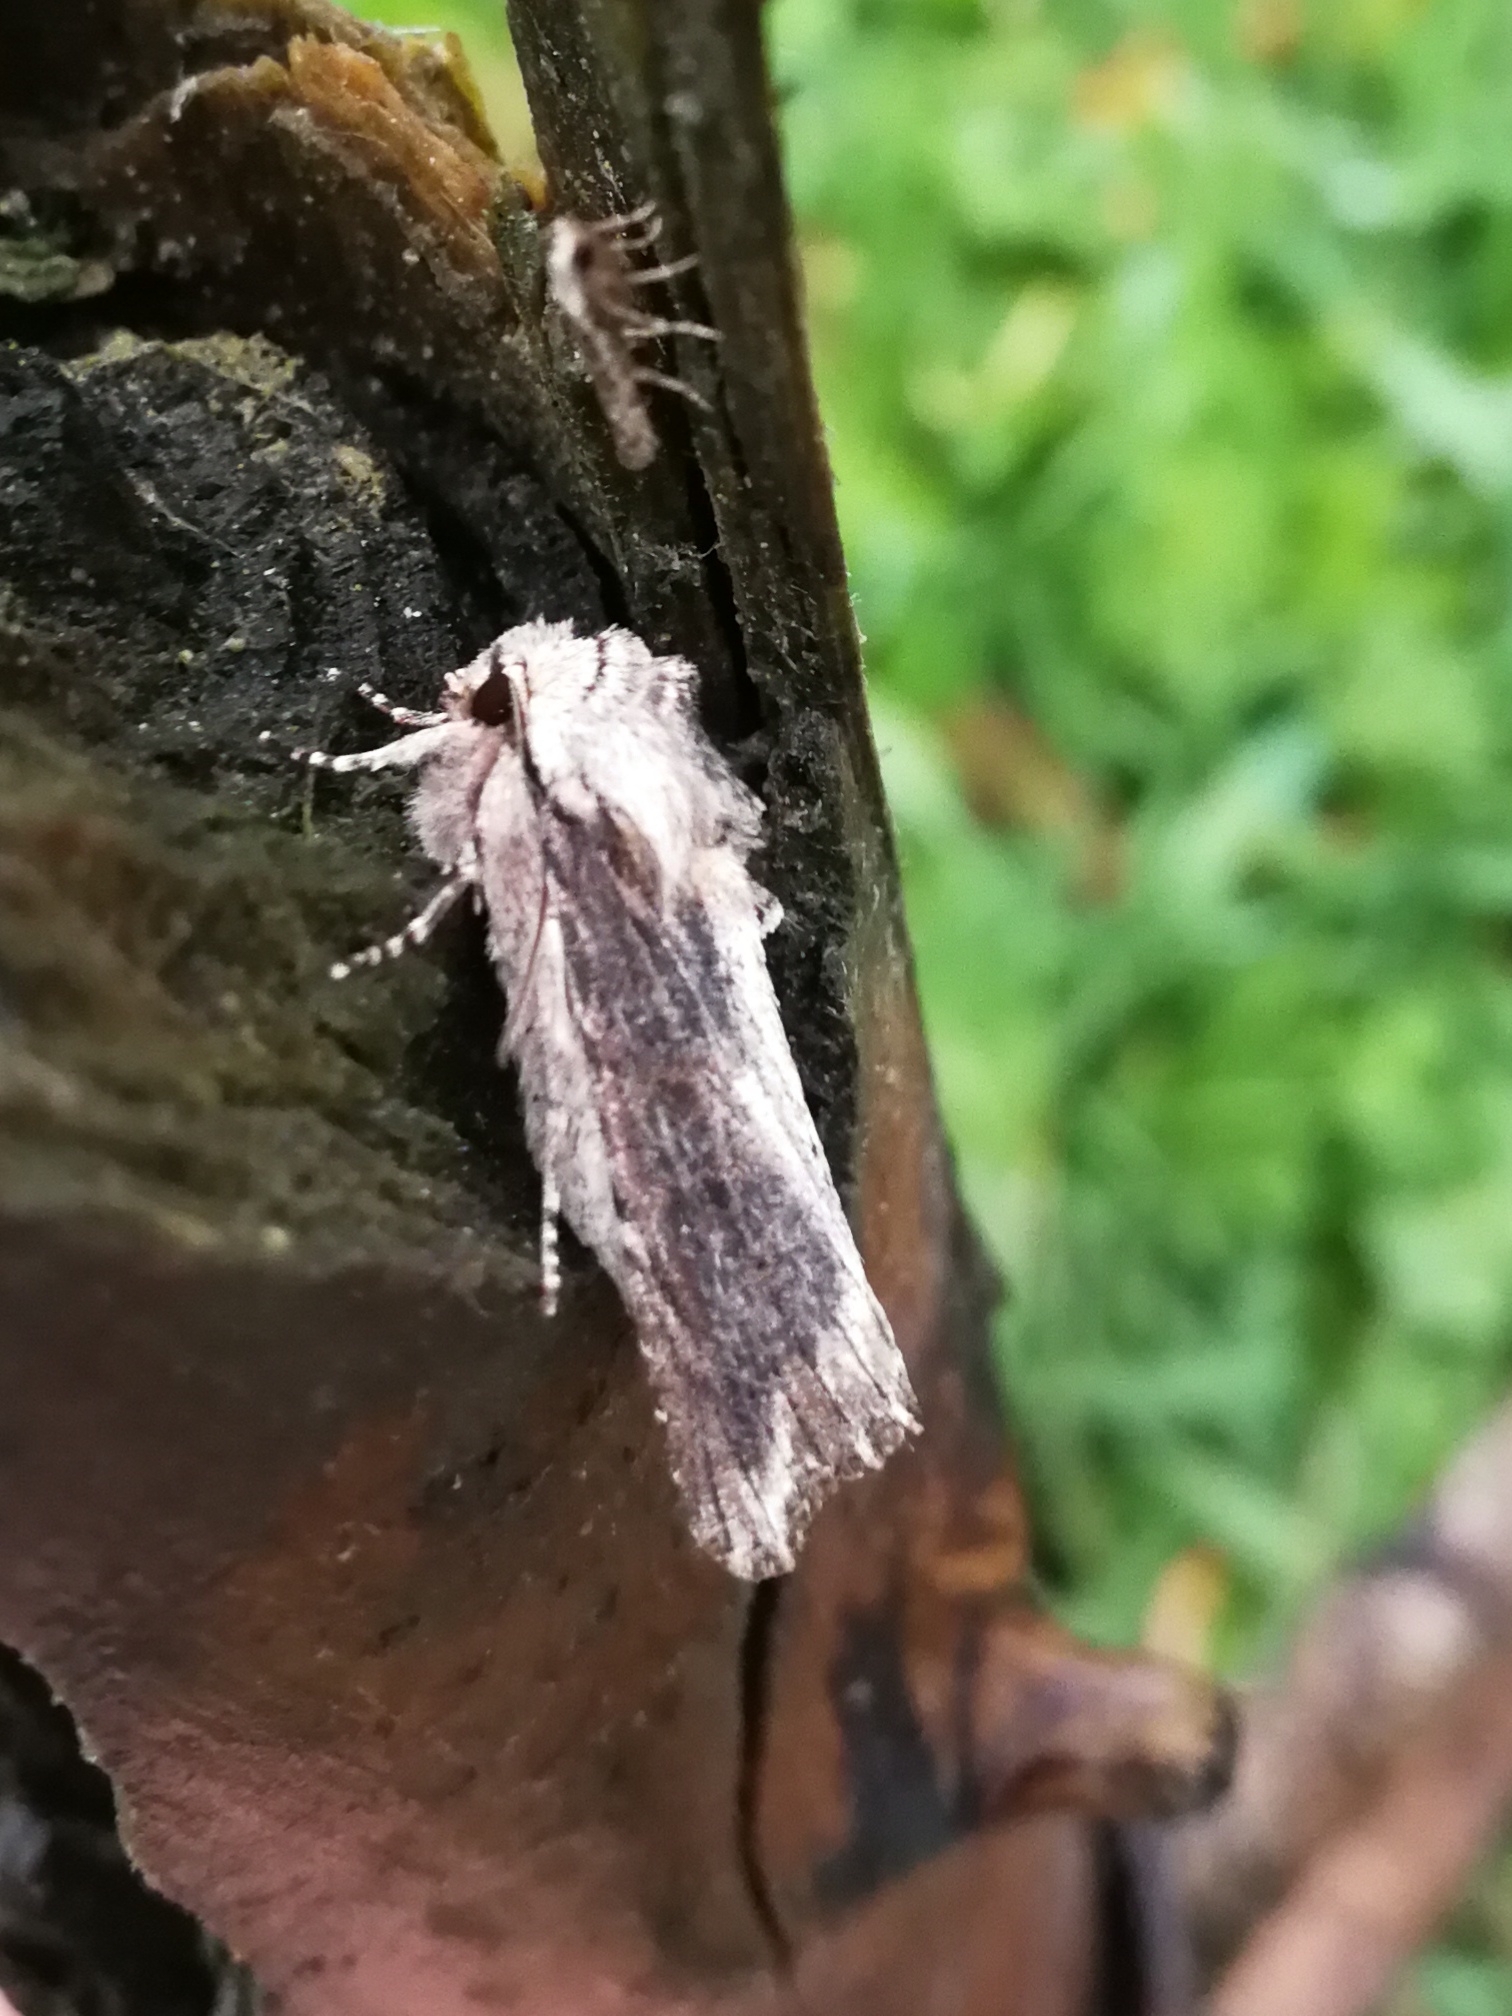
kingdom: Animalia
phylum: Arthropoda
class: Insecta
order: Lepidoptera
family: Noctuidae
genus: Egira
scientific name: Egira conspicillaris
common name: Silver cloud
